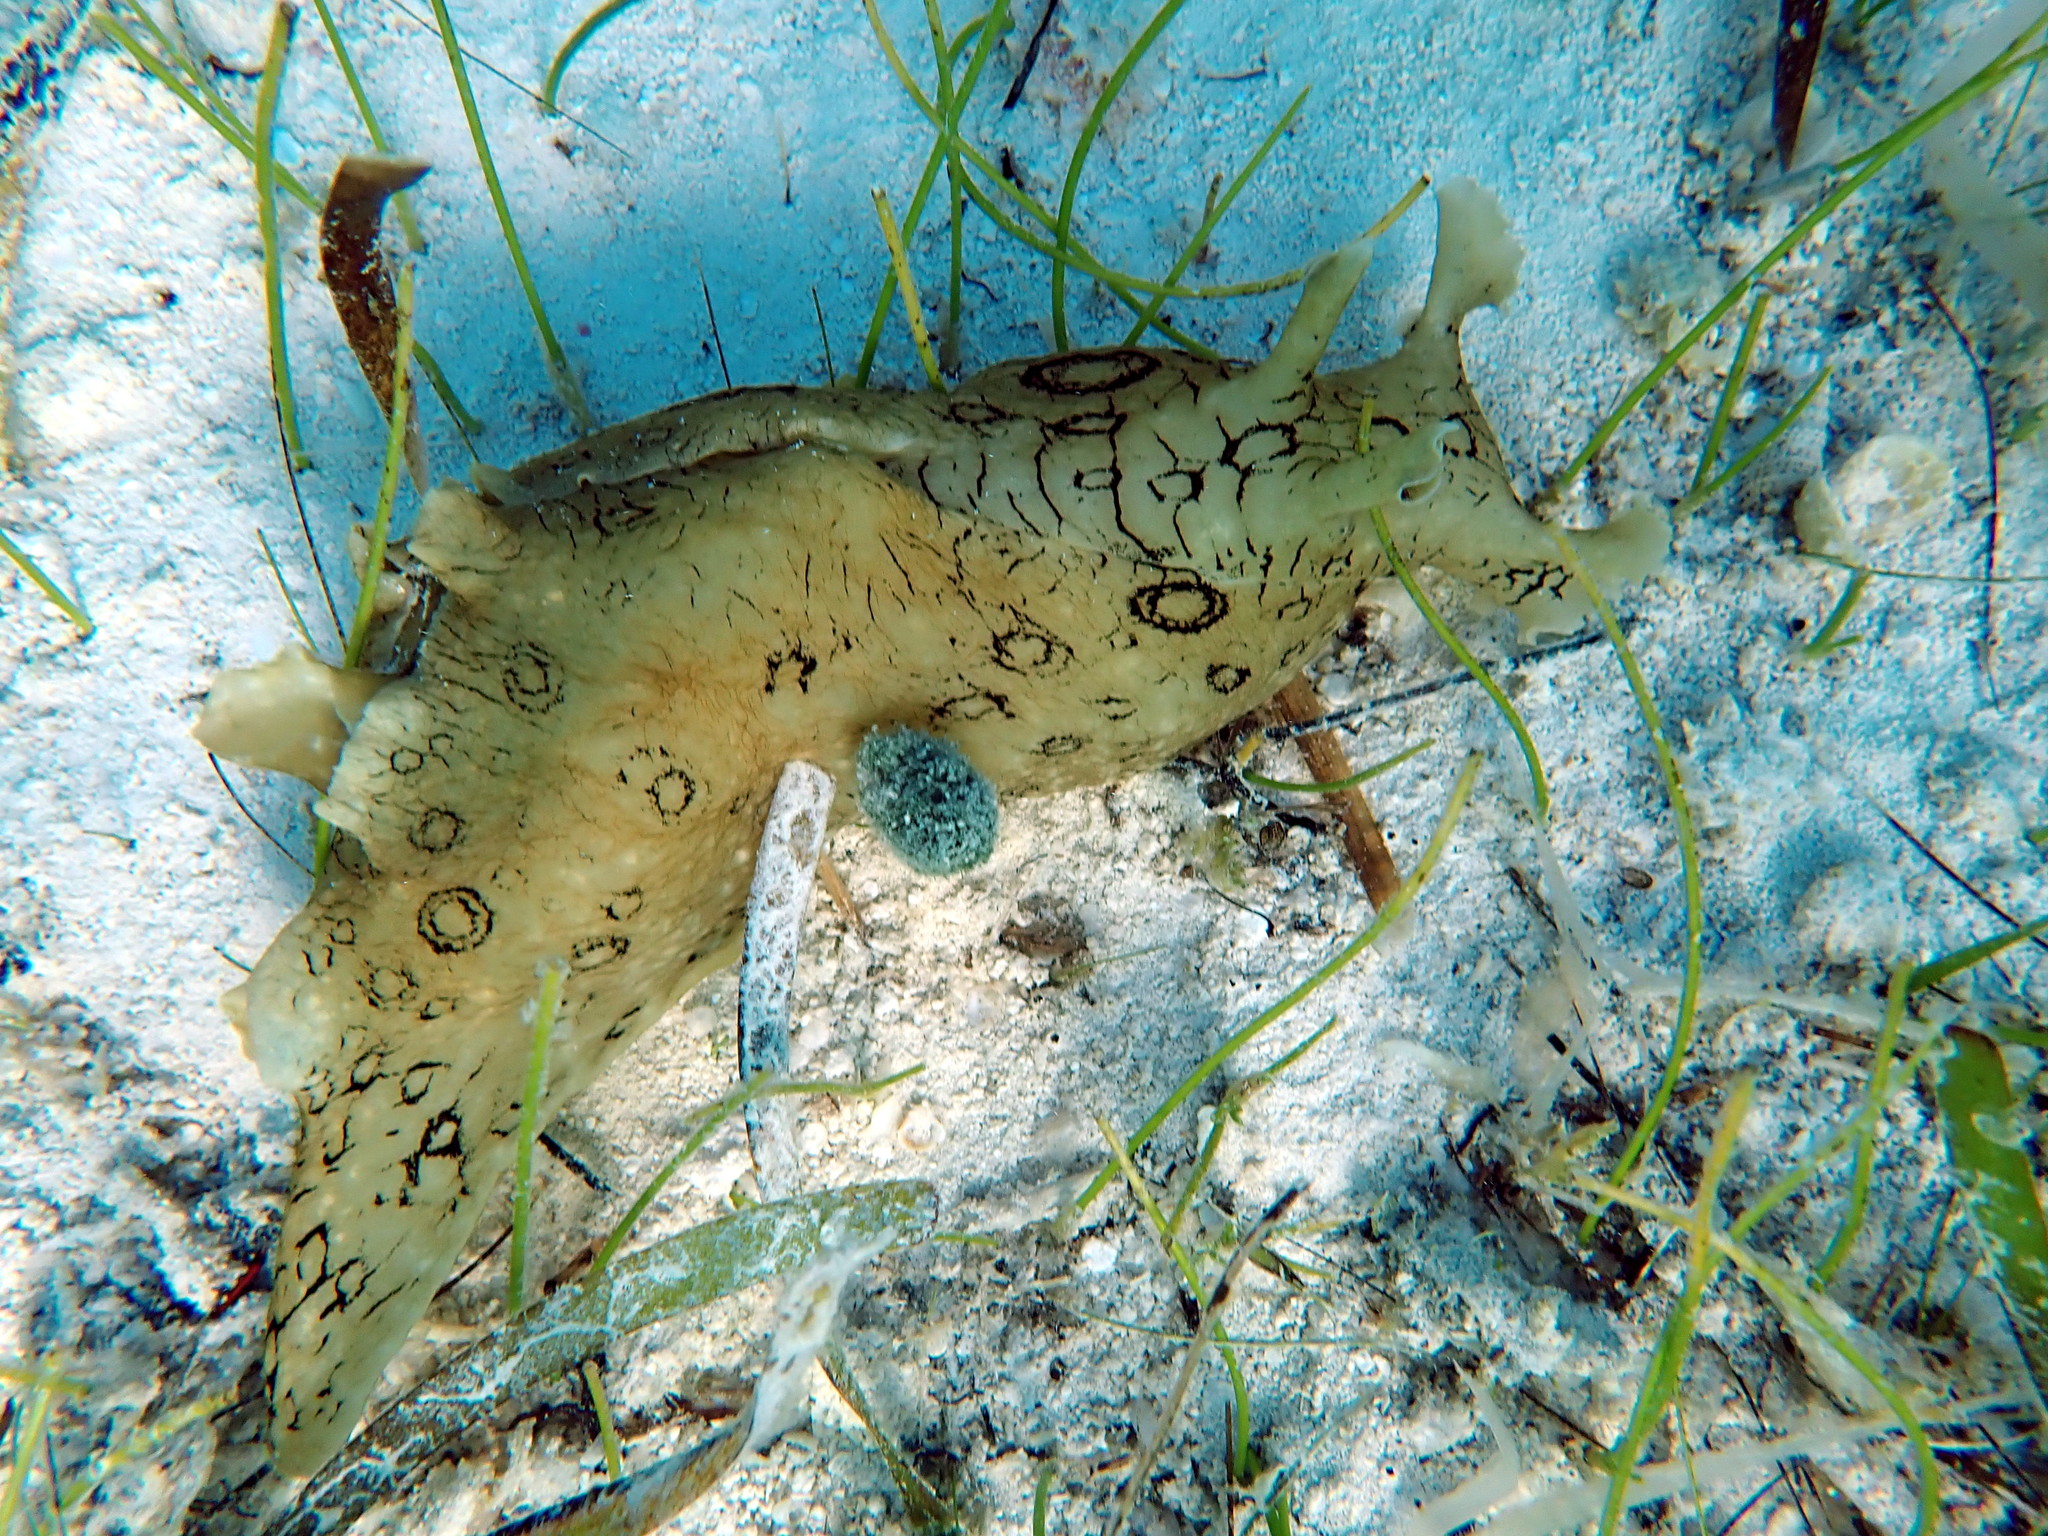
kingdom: Animalia
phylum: Mollusca
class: Gastropoda
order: Aplysiida
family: Aplysiidae
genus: Aplysia
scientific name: Aplysia dactylomela
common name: Large-spotted sea hare
